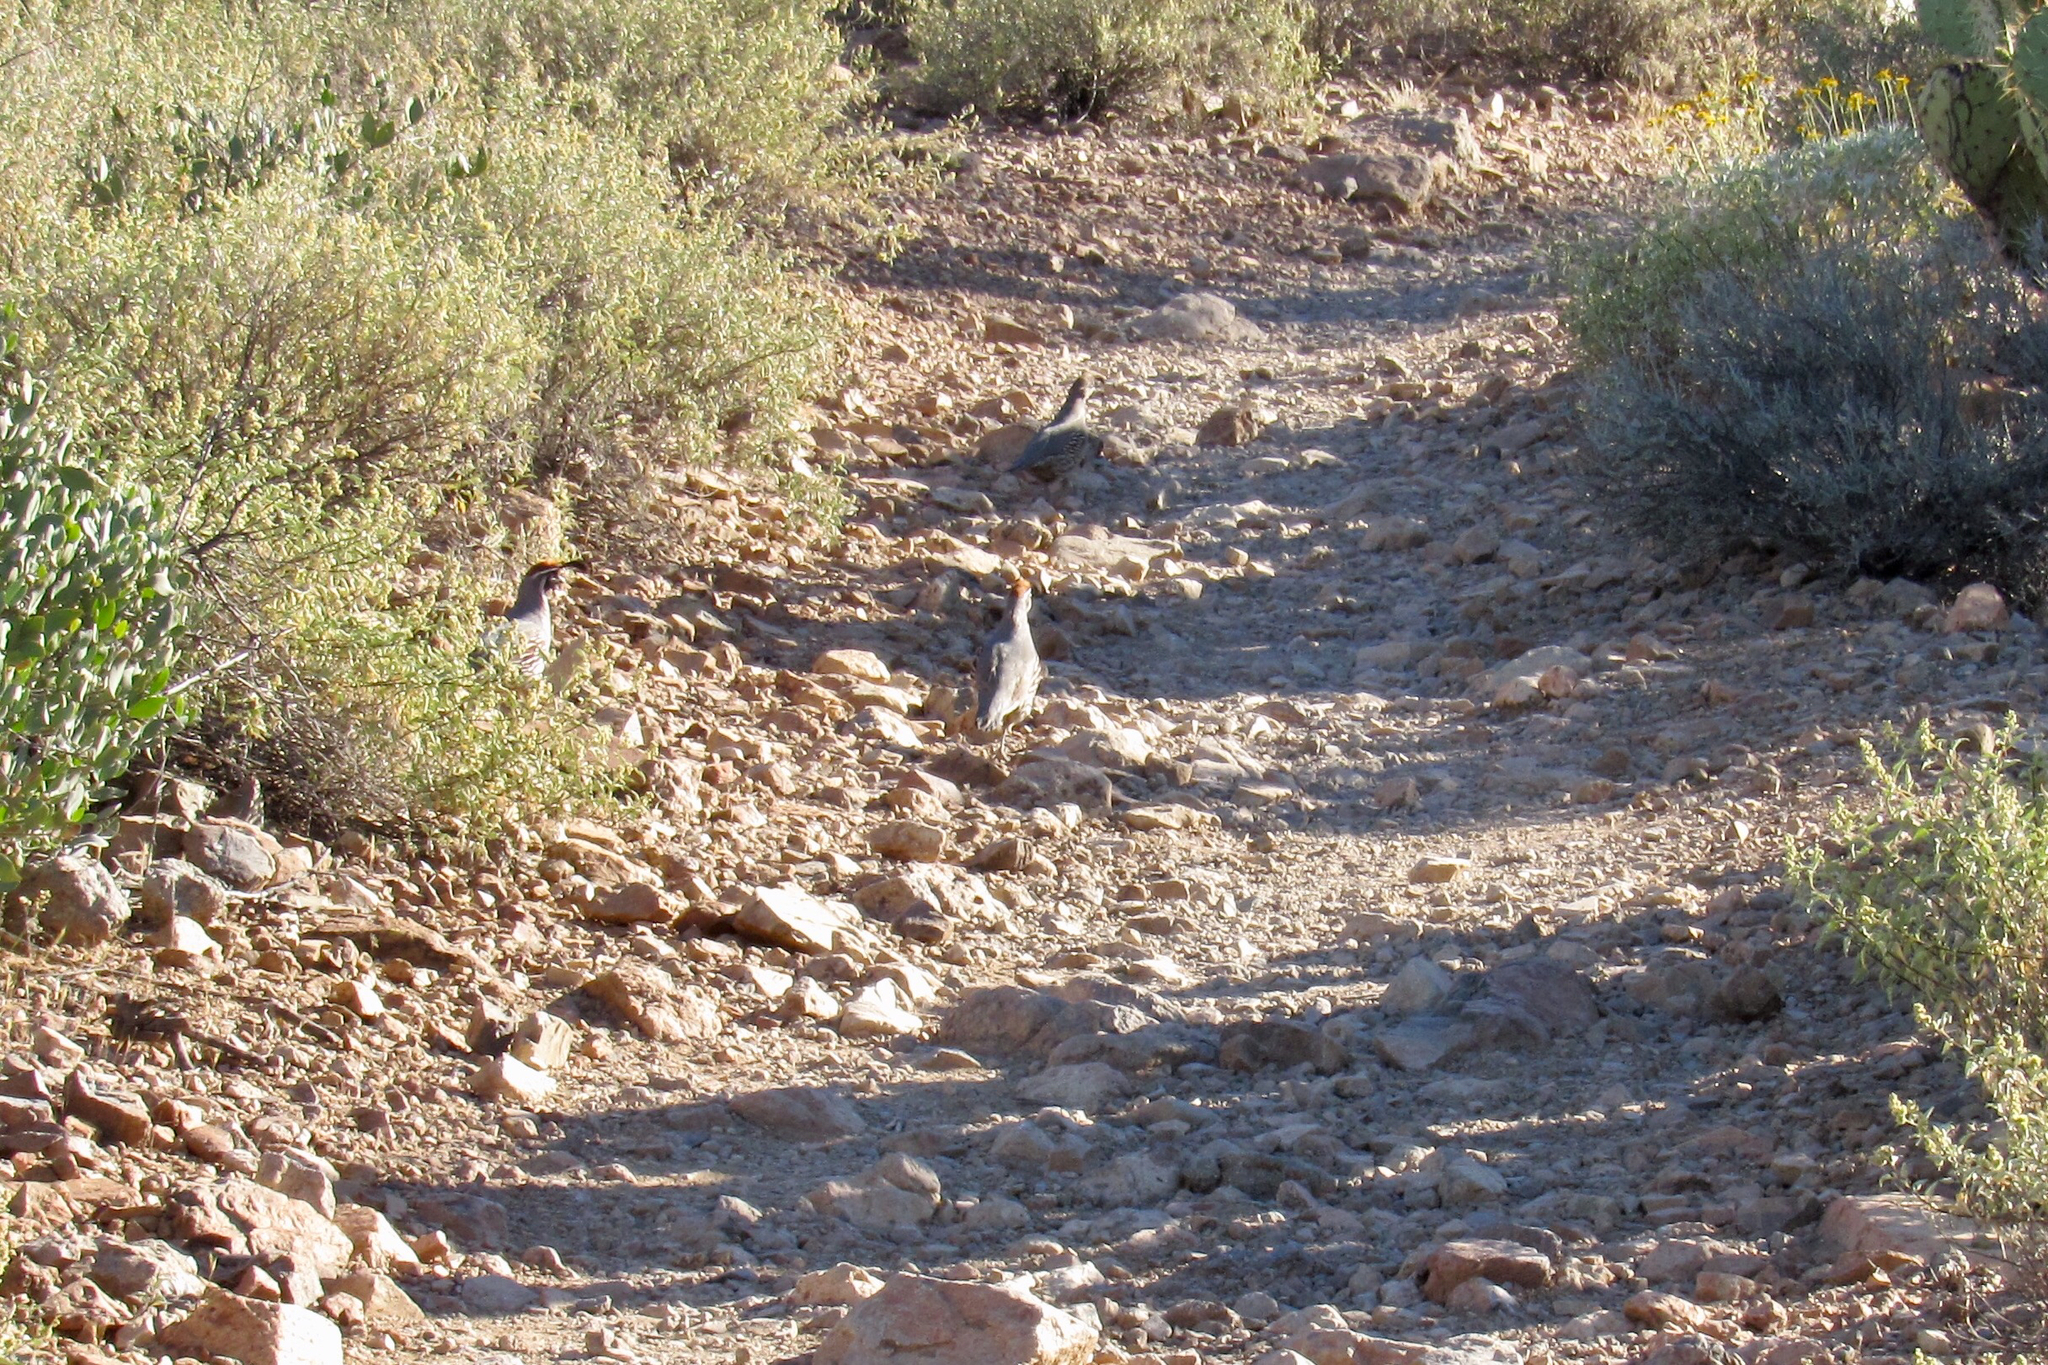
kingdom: Animalia
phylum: Chordata
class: Aves
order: Galliformes
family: Odontophoridae
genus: Callipepla
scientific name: Callipepla gambelii
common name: Gambel's quail
